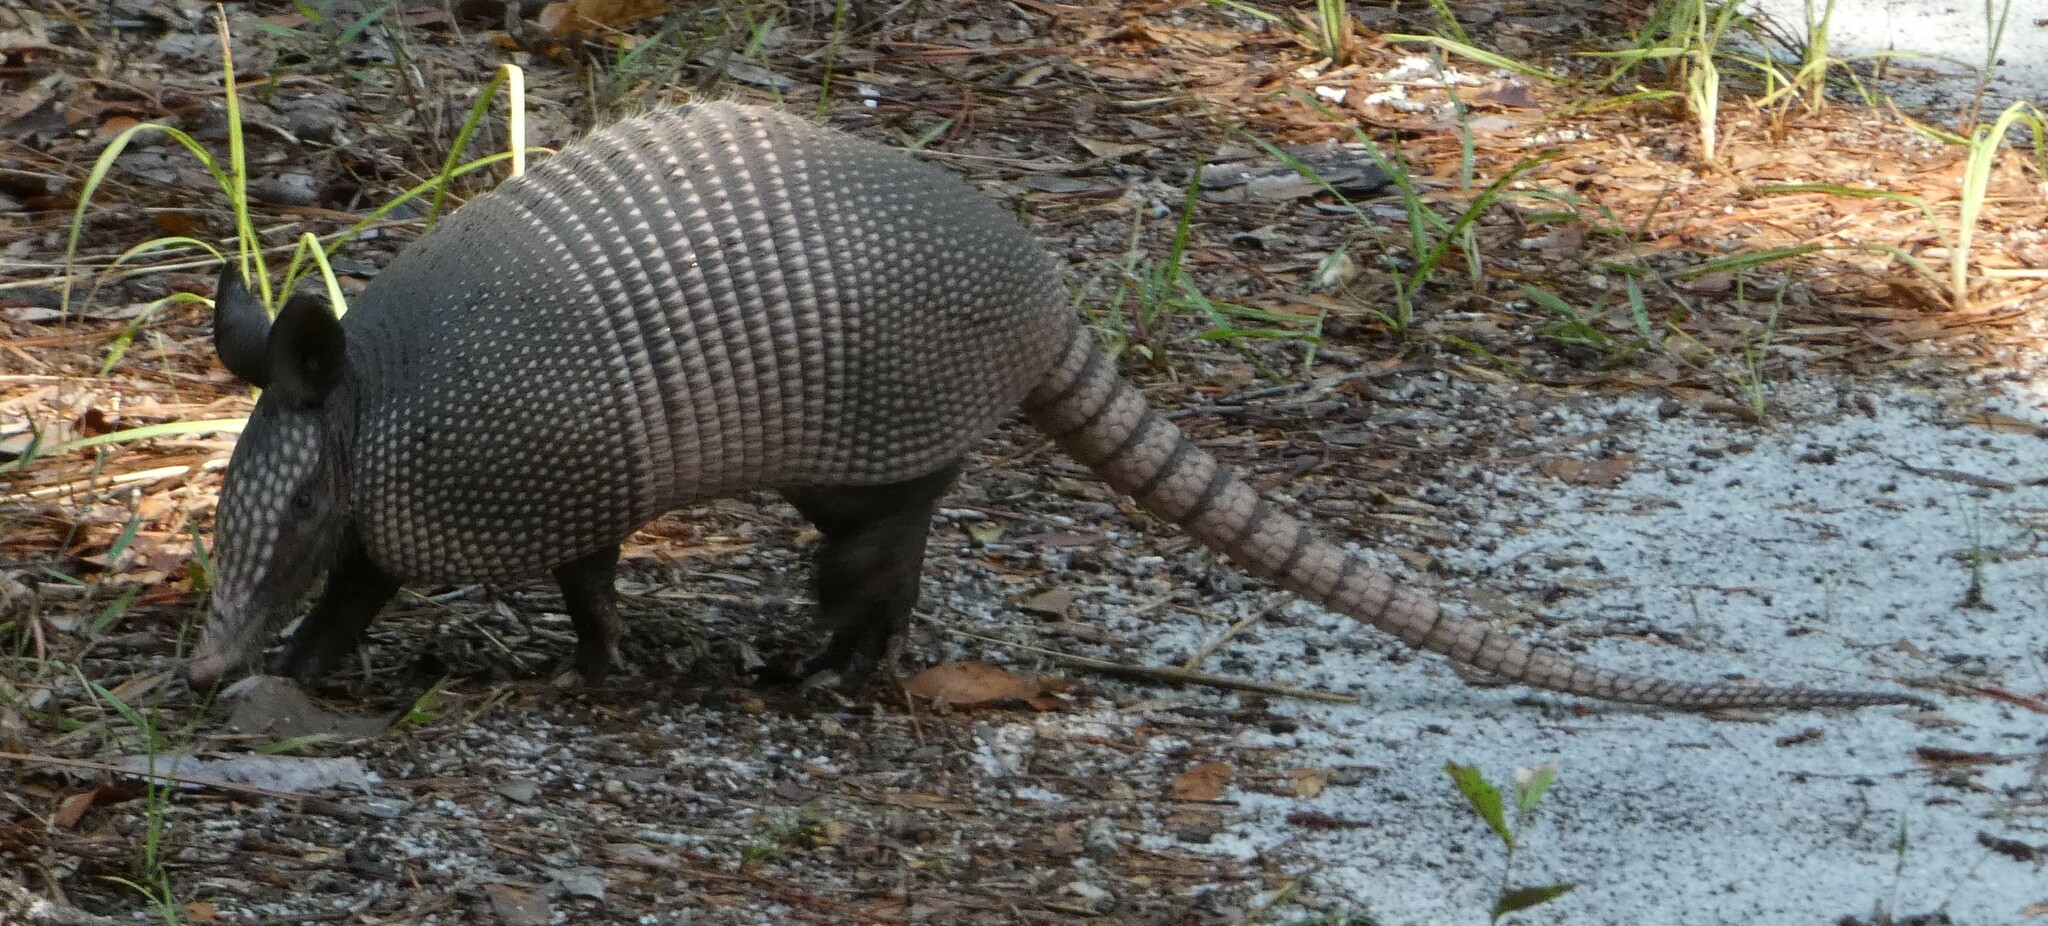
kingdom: Animalia
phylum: Chordata
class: Mammalia
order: Cingulata
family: Dasypodidae
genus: Dasypus
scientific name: Dasypus novemcinctus
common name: Nine-banded armadillo
